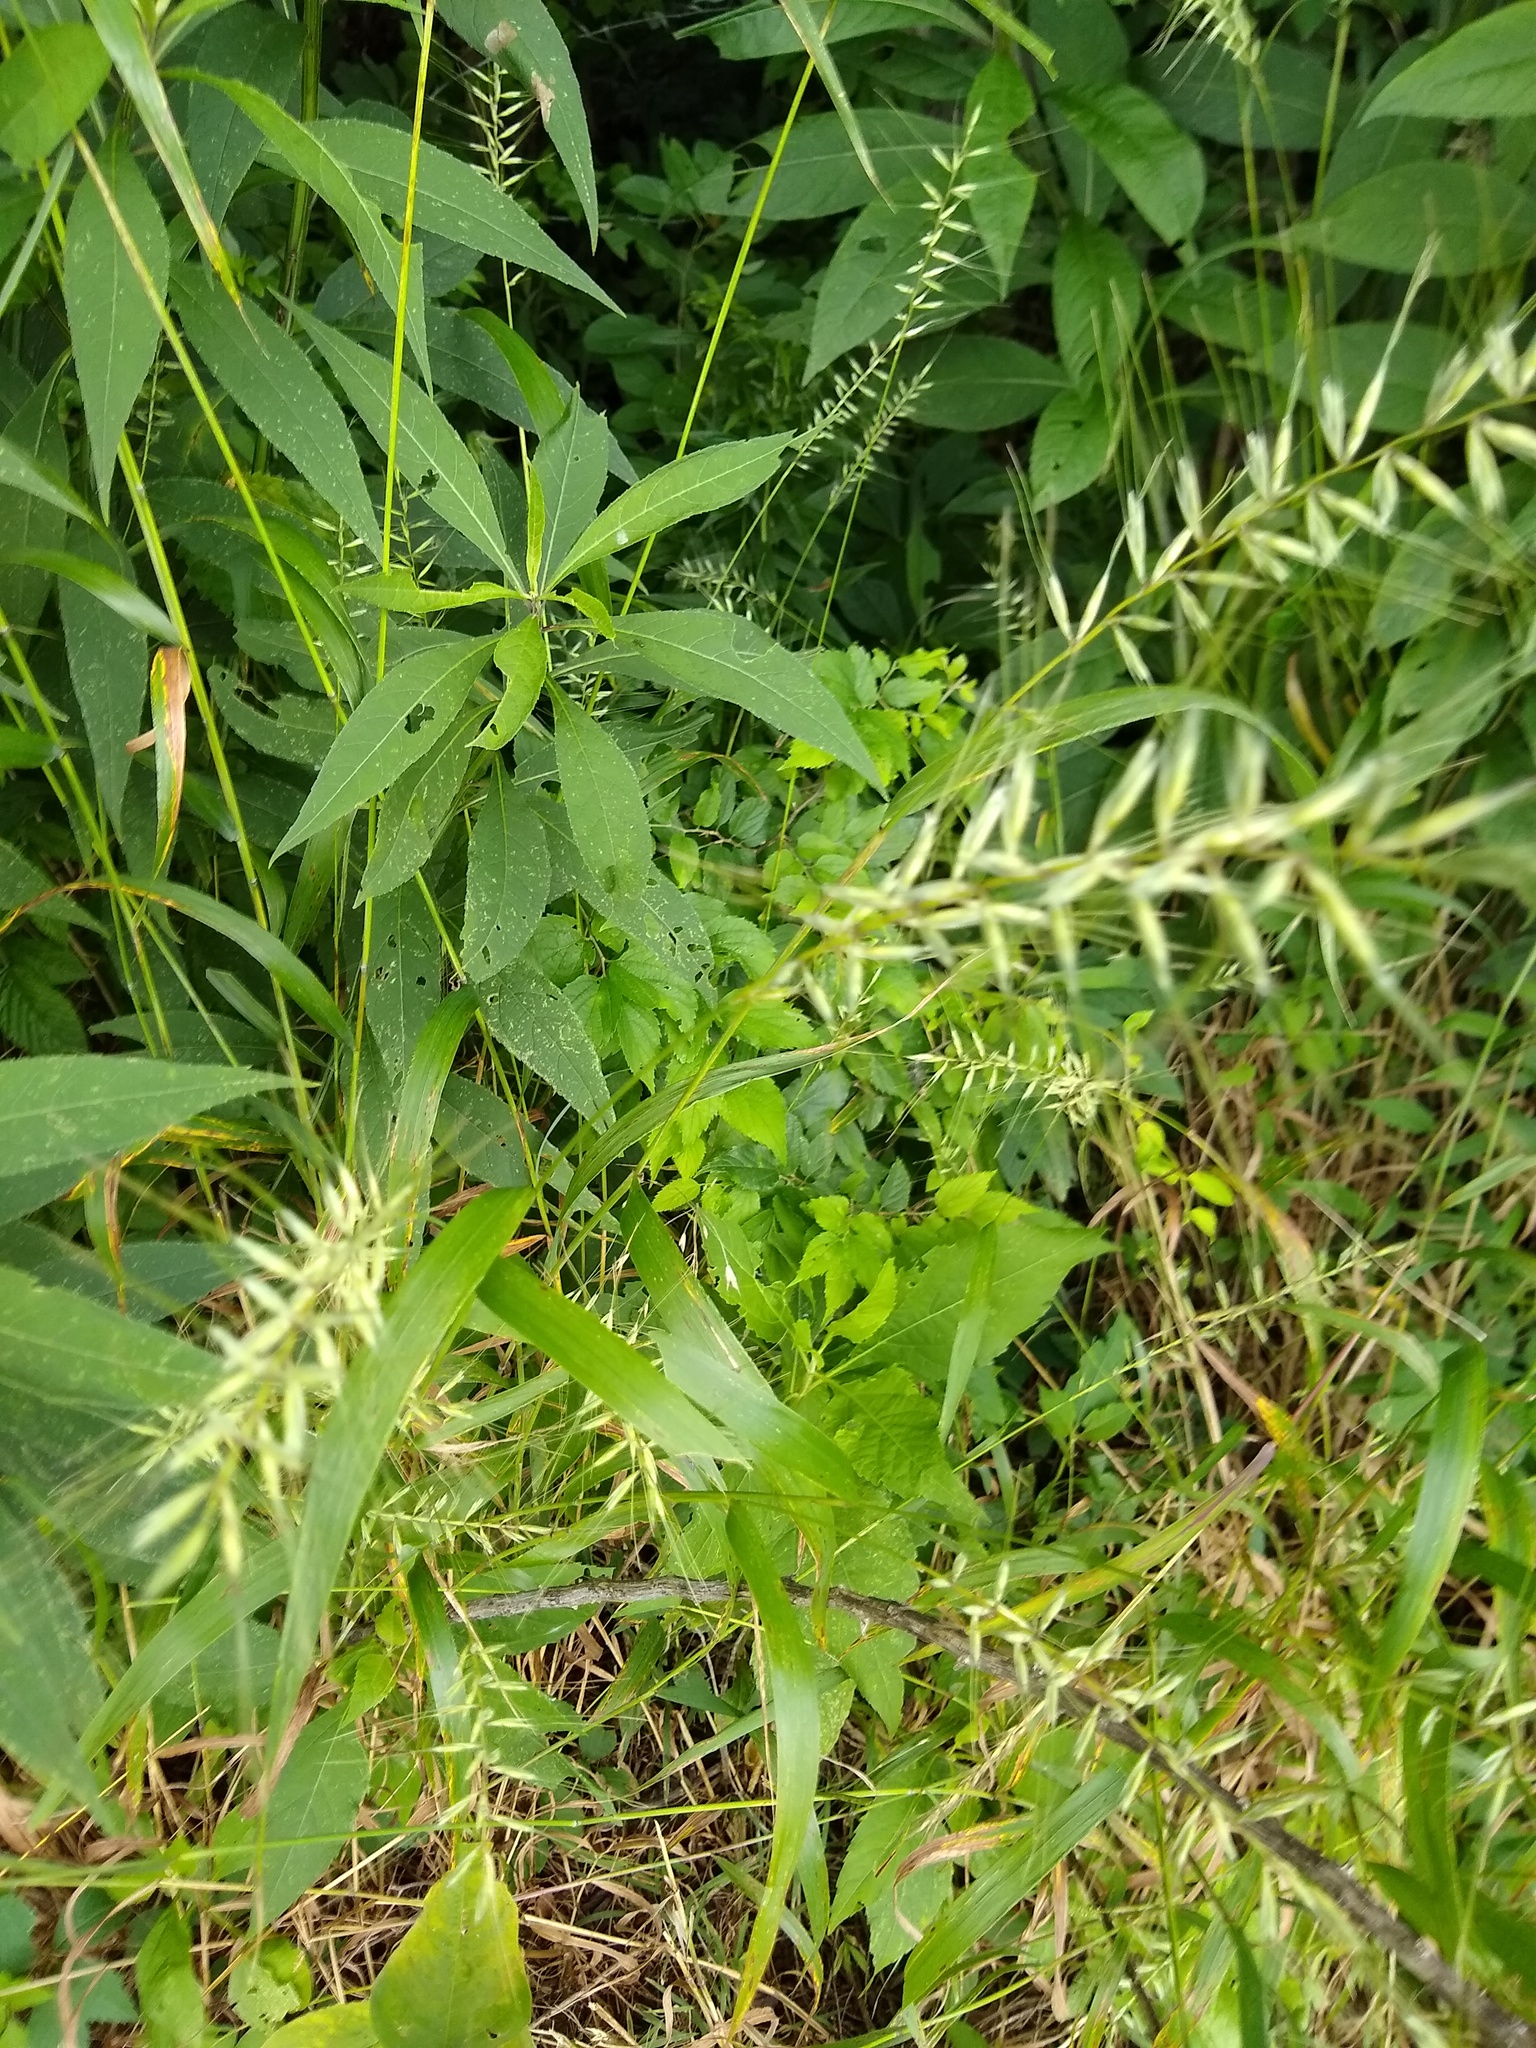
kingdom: Plantae
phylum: Tracheophyta
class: Liliopsida
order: Poales
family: Poaceae
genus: Elymus
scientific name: Elymus hystrix
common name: Bottlebrush grass
